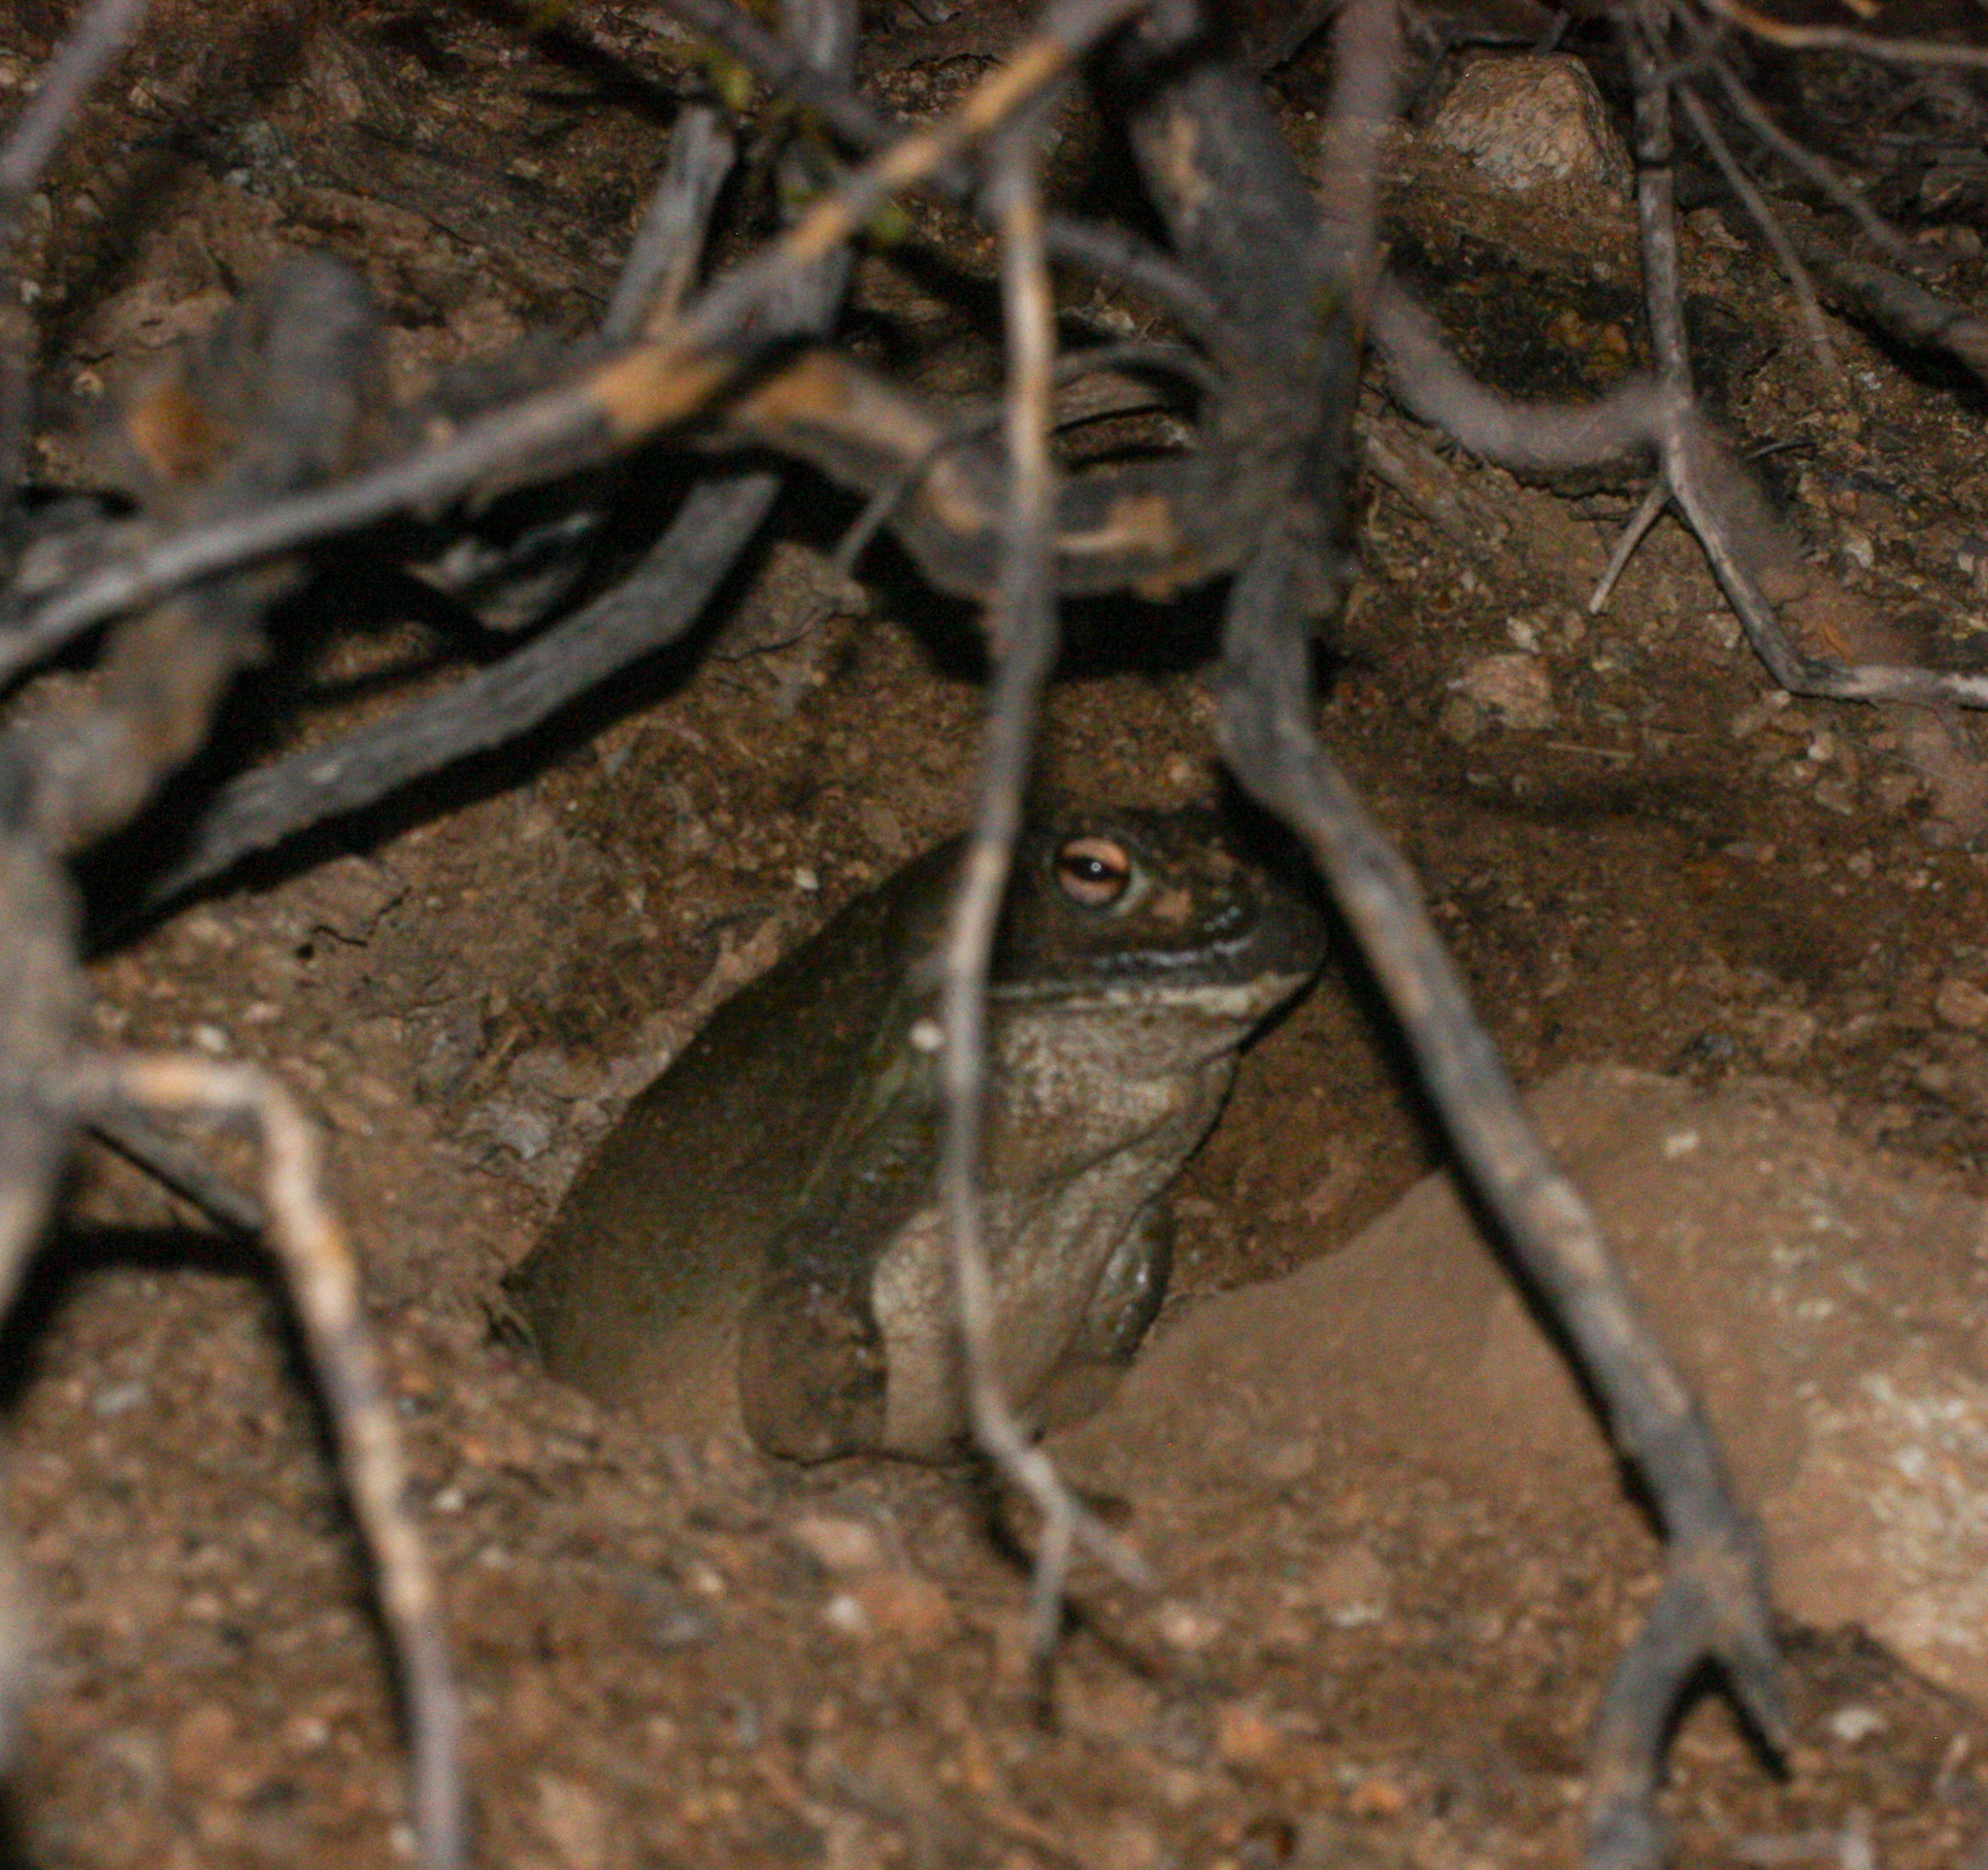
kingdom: Animalia
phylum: Chordata
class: Amphibia
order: Anura
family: Bufonidae
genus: Incilius
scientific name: Incilius alvarius
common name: Sonoran desert toad
